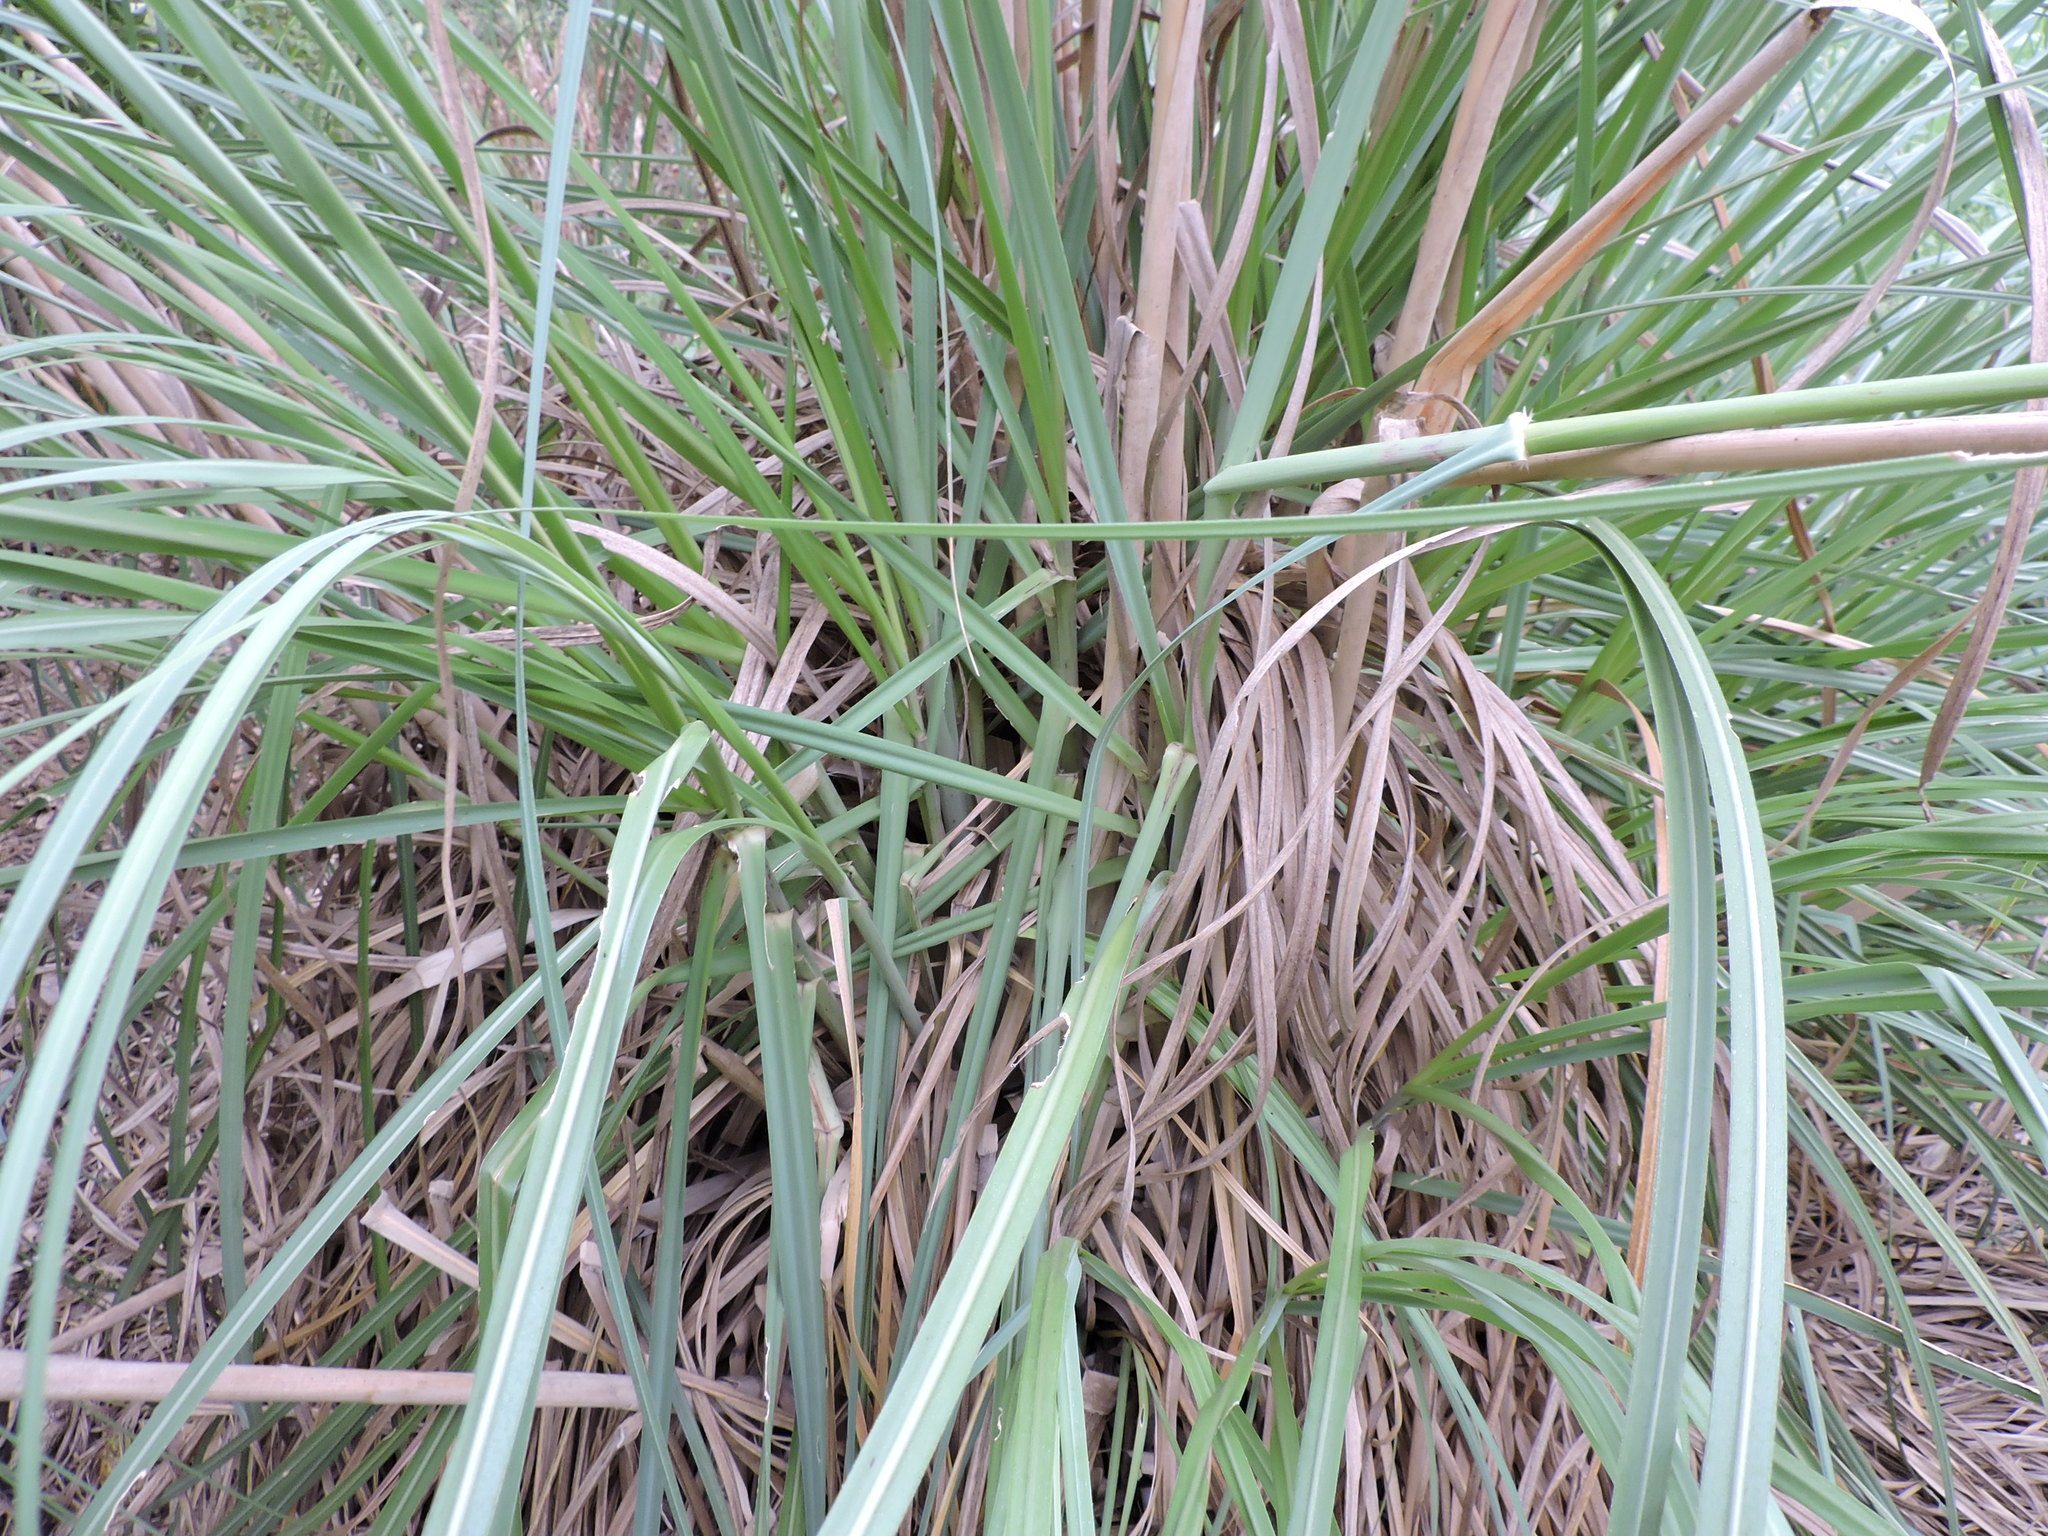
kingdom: Plantae
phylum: Tracheophyta
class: Liliopsida
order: Poales
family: Poaceae
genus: Cortaderia
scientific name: Cortaderia selloana
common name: Uruguayan pampas grass
